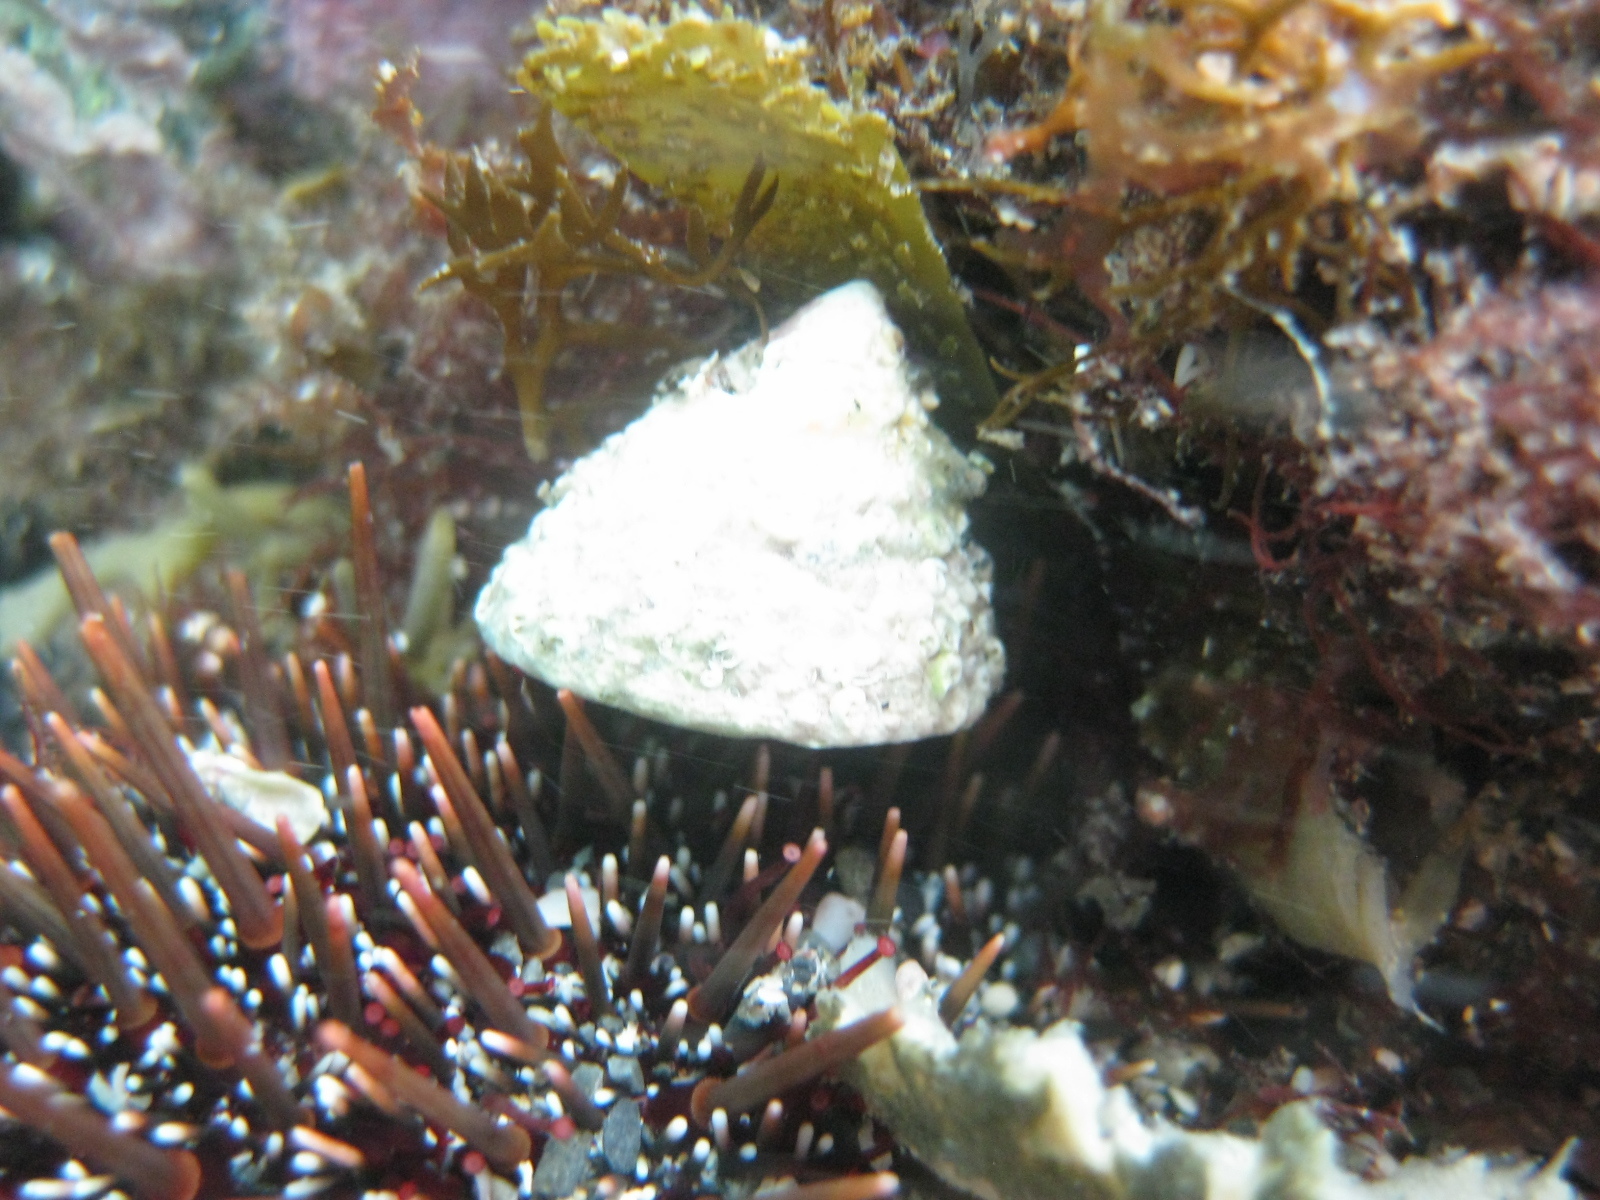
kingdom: Animalia
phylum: Mollusca
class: Gastropoda
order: Trochida
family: Trochidae
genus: Coelotrochus
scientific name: Coelotrochus viridis
